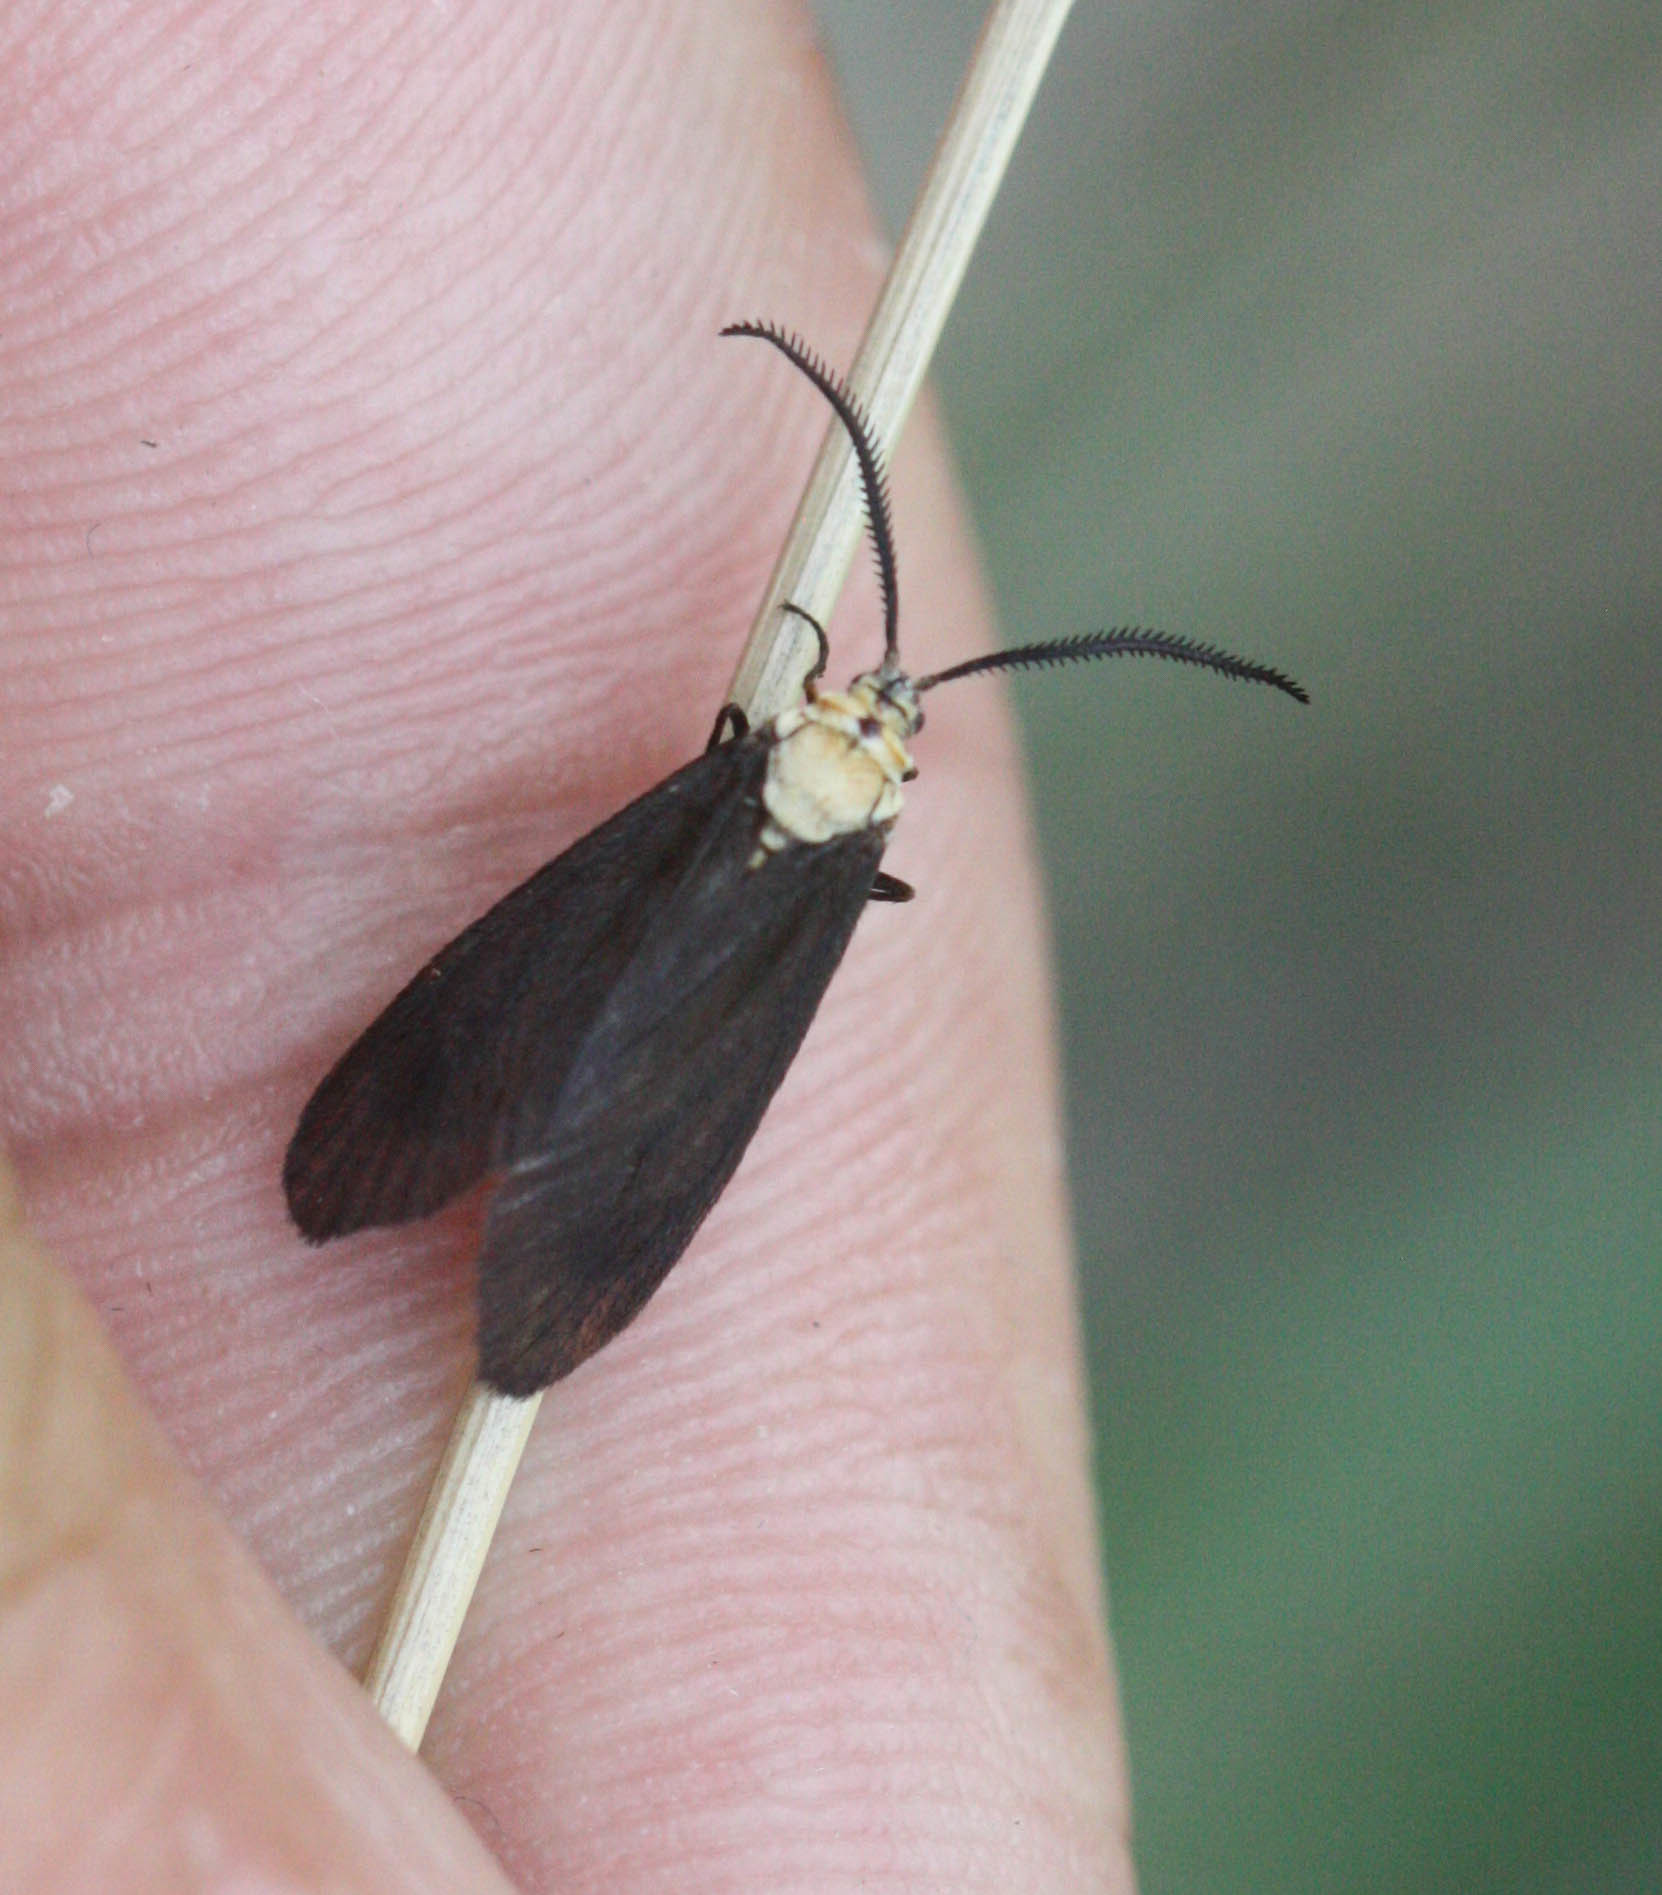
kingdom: Animalia
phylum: Arthropoda
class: Insecta
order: Lepidoptera
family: Zygaenidae
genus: Neoilliberis
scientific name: Neoilliberis fusca
